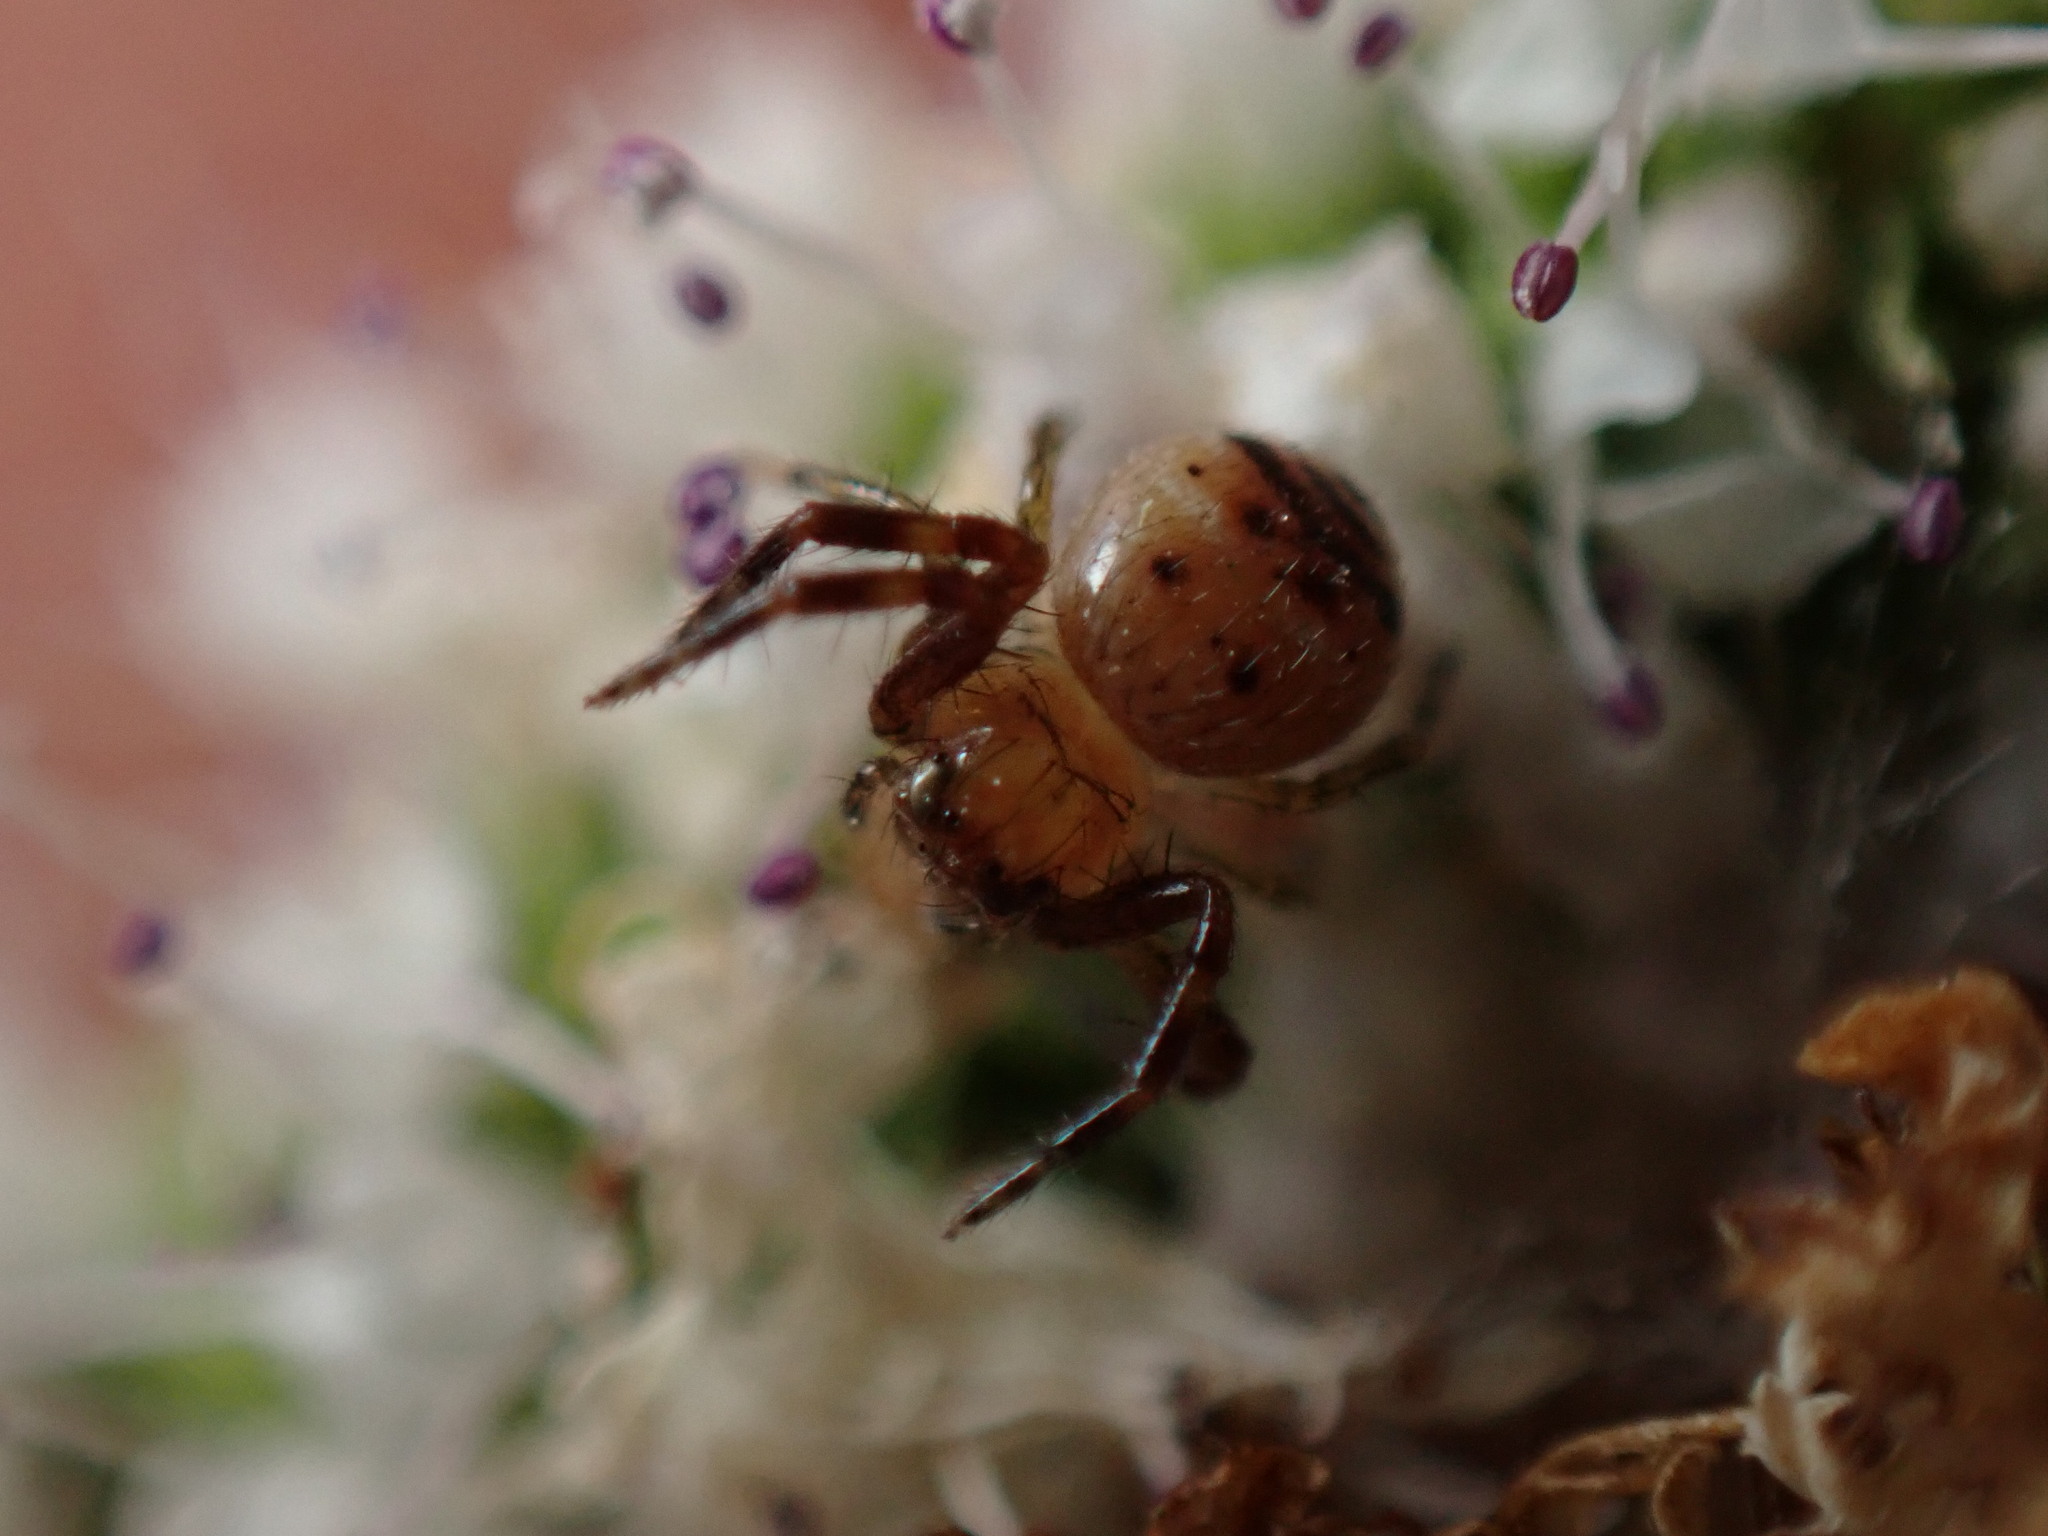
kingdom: Animalia
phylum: Arthropoda
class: Arachnida
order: Araneae
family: Thomisidae
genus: Synema
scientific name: Synema globosum
